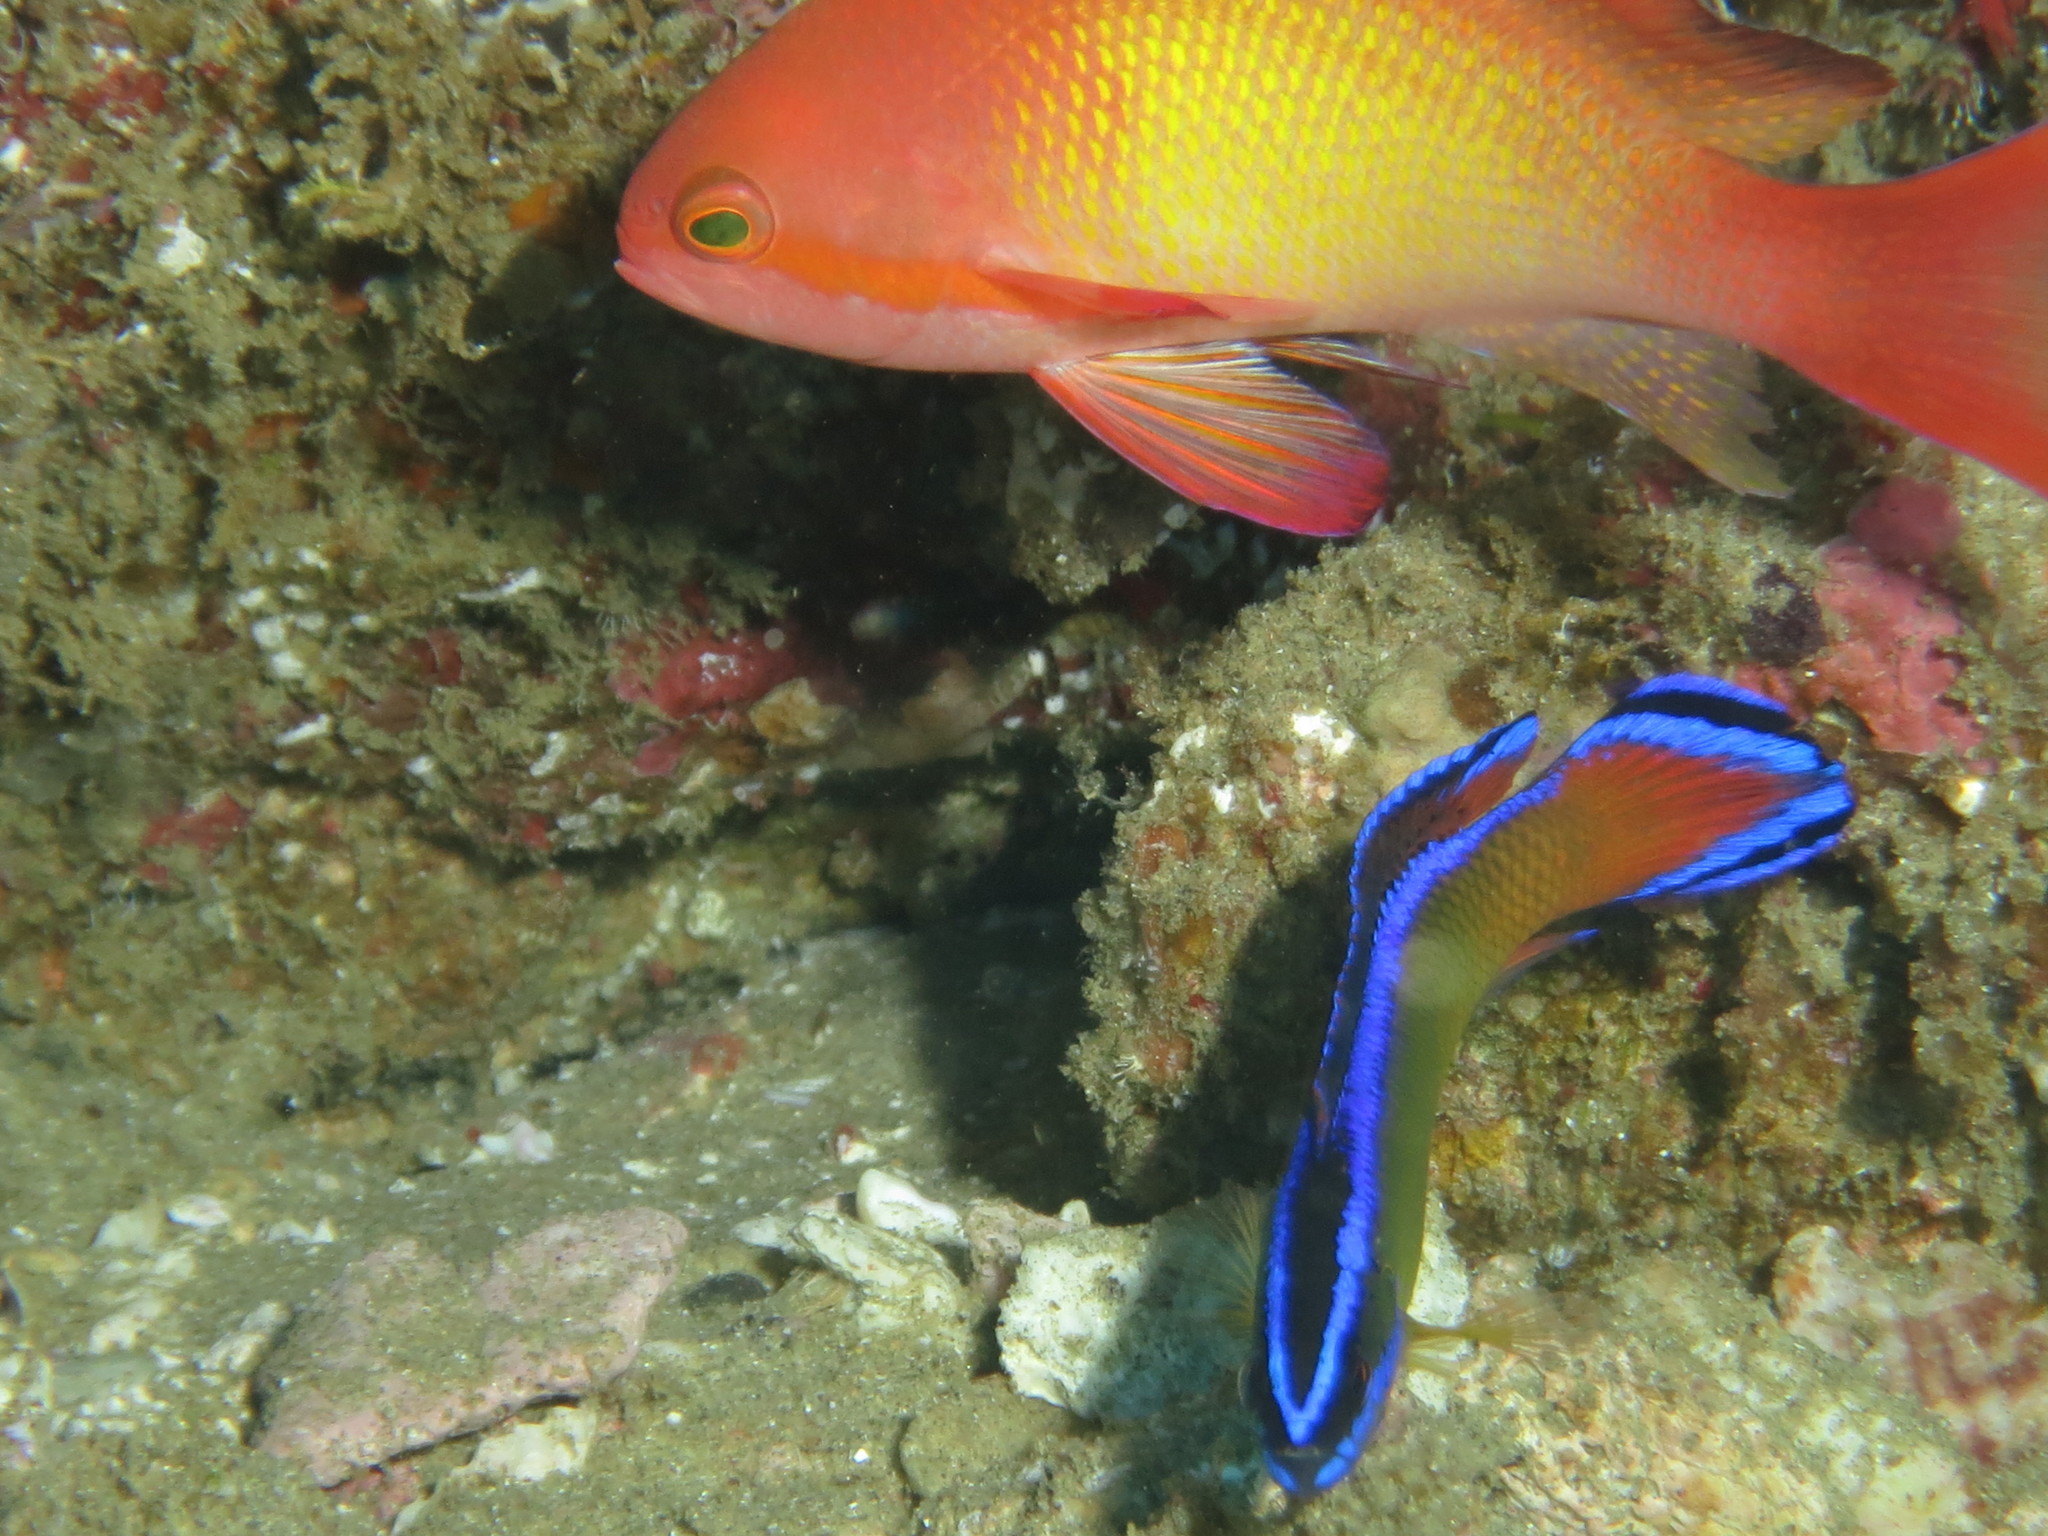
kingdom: Animalia
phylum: Chordata
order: Perciformes
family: Serranidae
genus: Pseudanthias
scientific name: Pseudanthias squamipinnis
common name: Scalefin anthias
